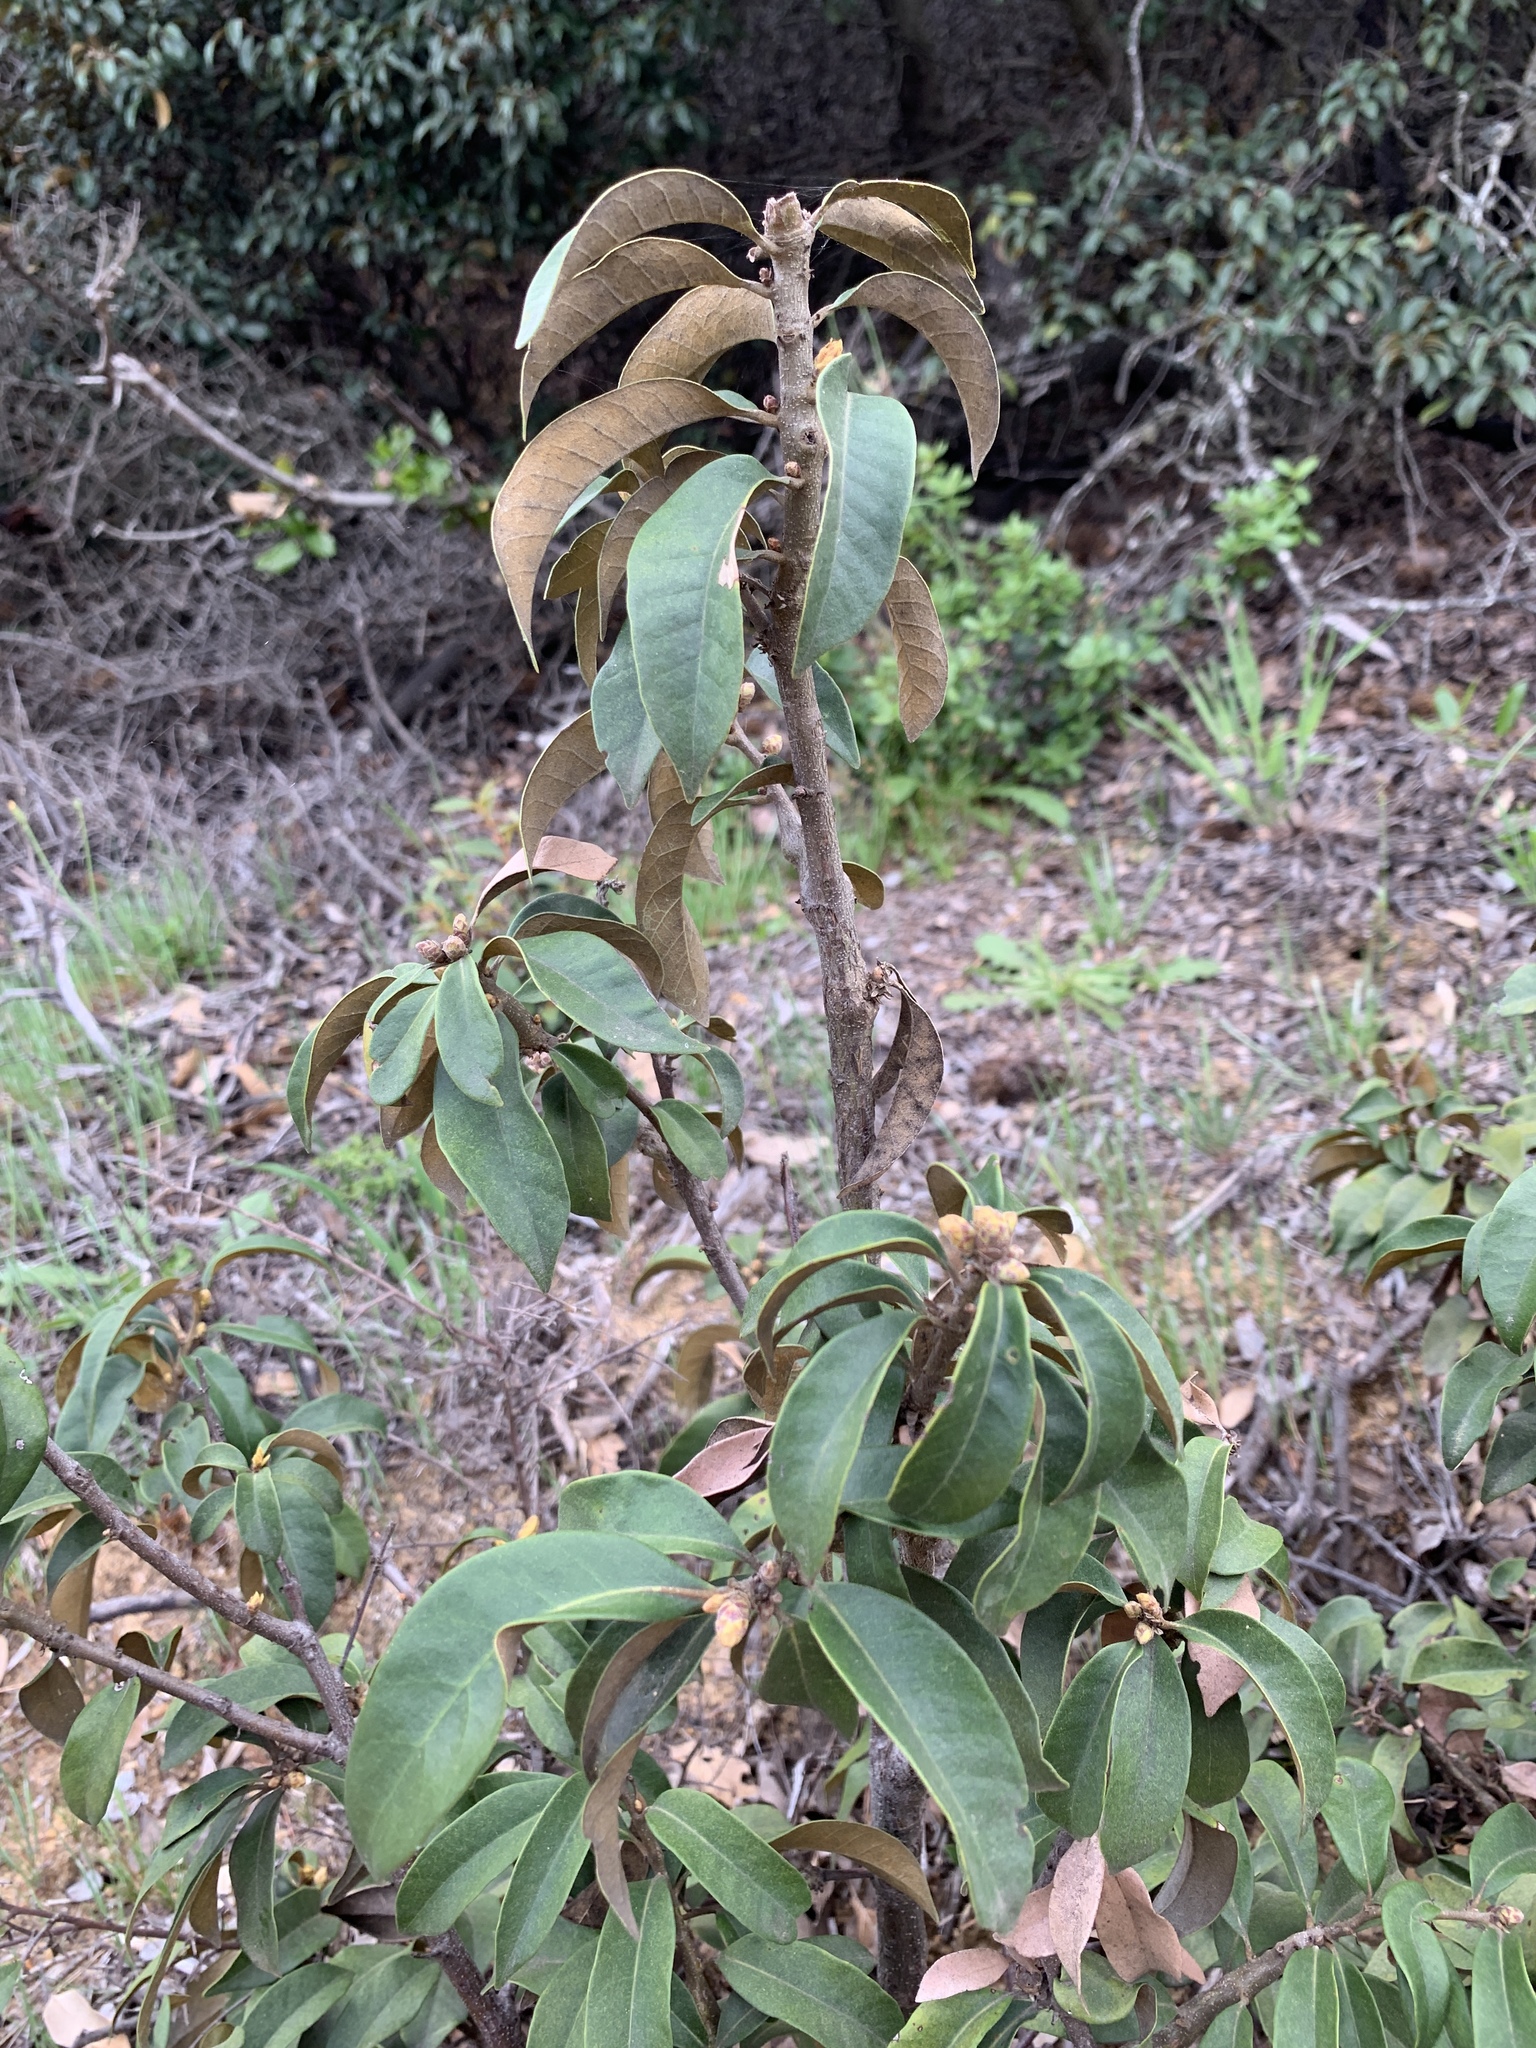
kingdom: Plantae
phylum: Tracheophyta
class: Magnoliopsida
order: Fagales
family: Fagaceae
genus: Chrysolepis
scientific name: Chrysolepis chrysophylla
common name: Giant chinquapin
